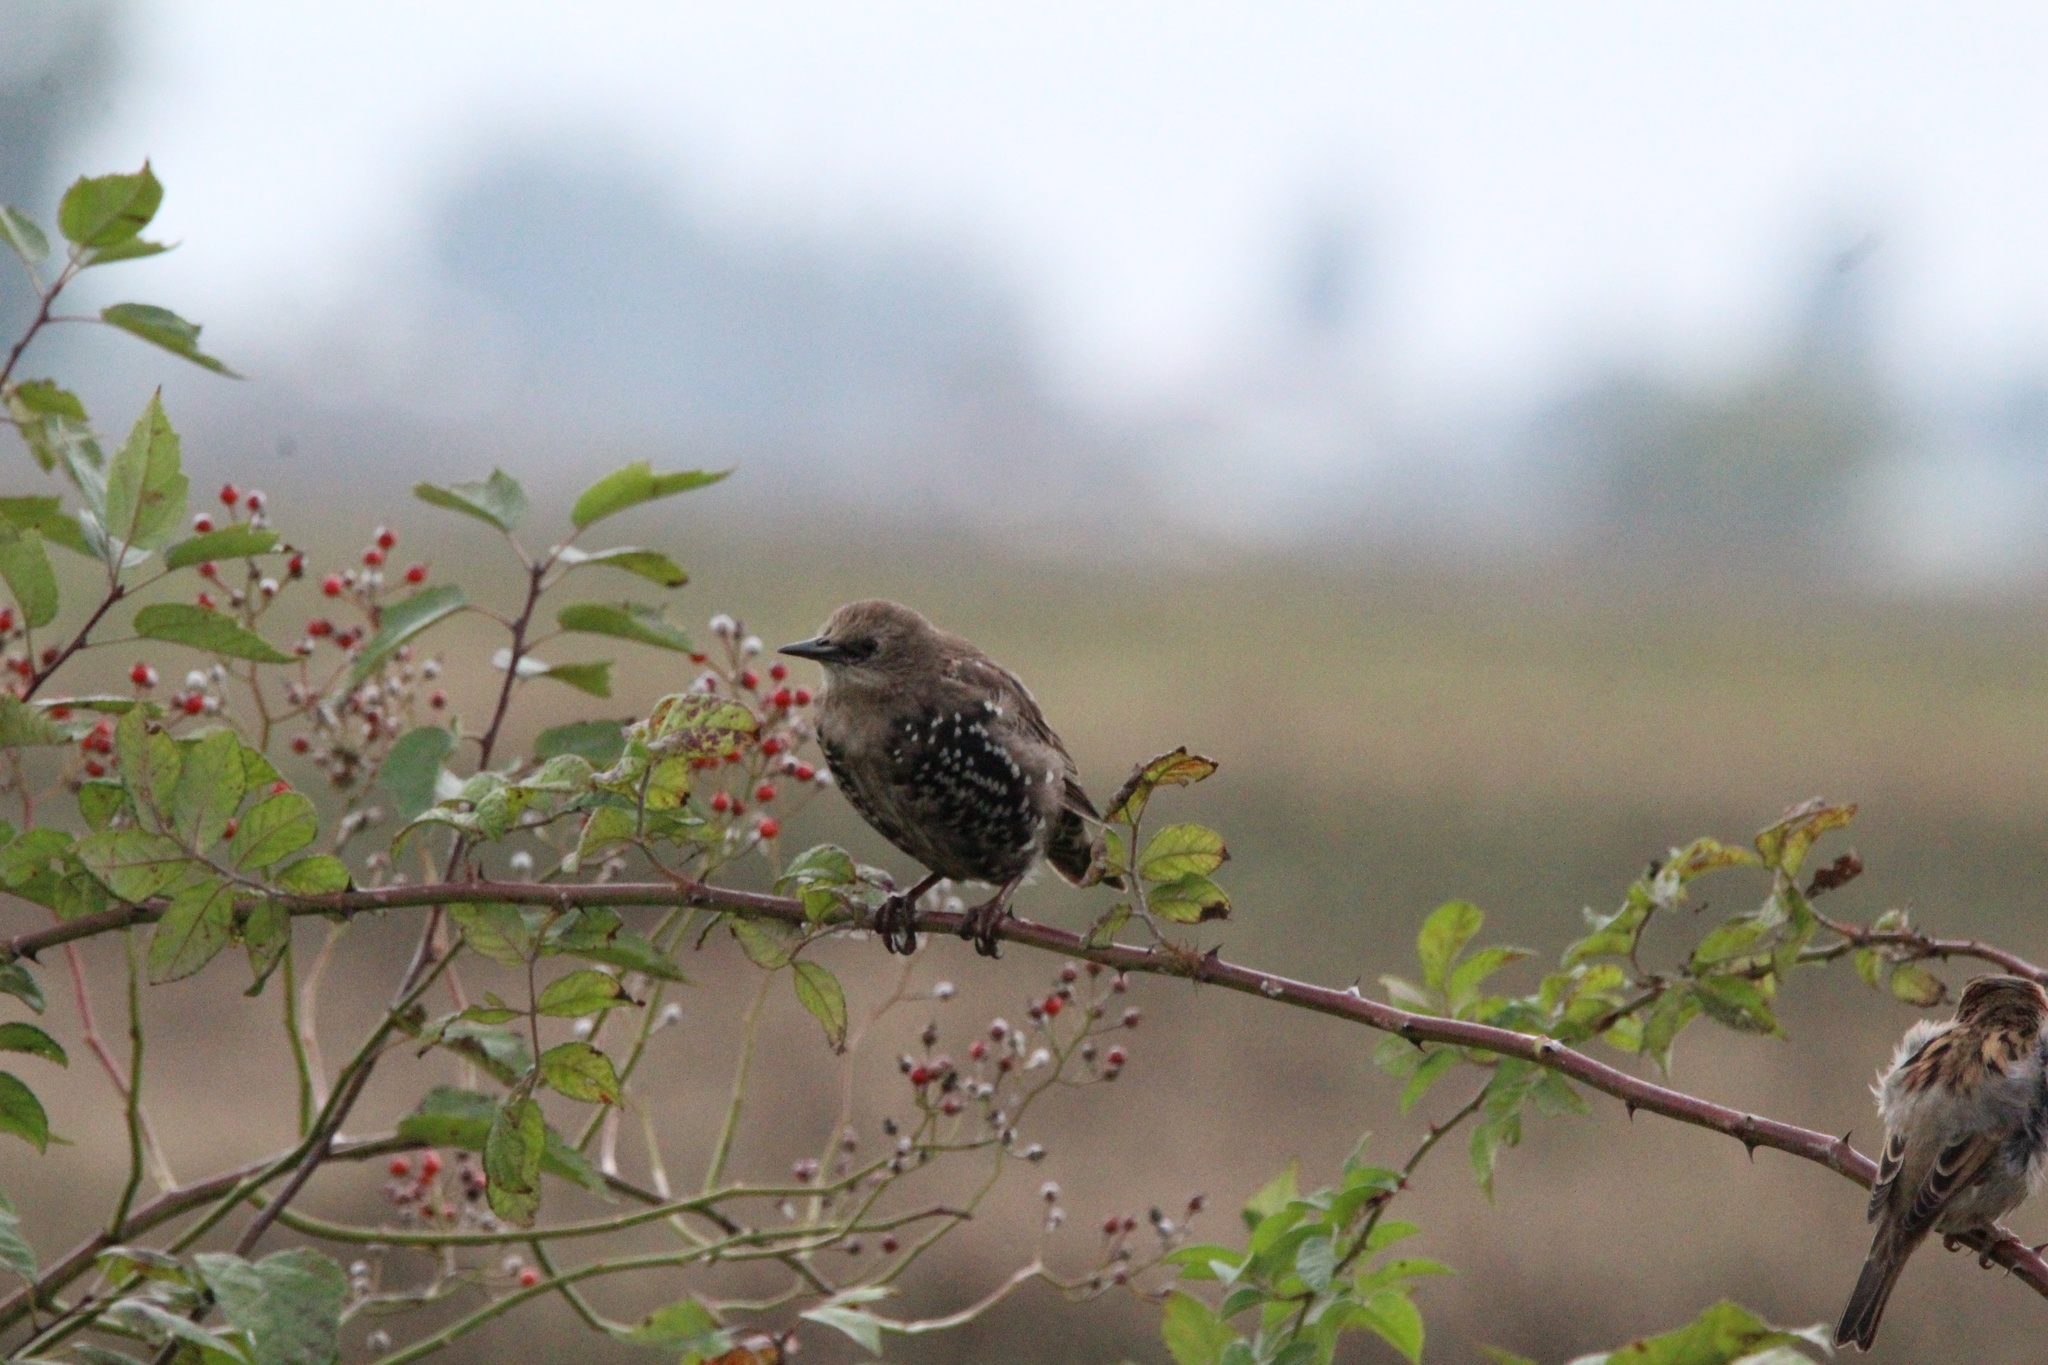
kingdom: Animalia
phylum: Chordata
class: Aves
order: Passeriformes
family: Sturnidae
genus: Sturnus
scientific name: Sturnus vulgaris
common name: Common starling
